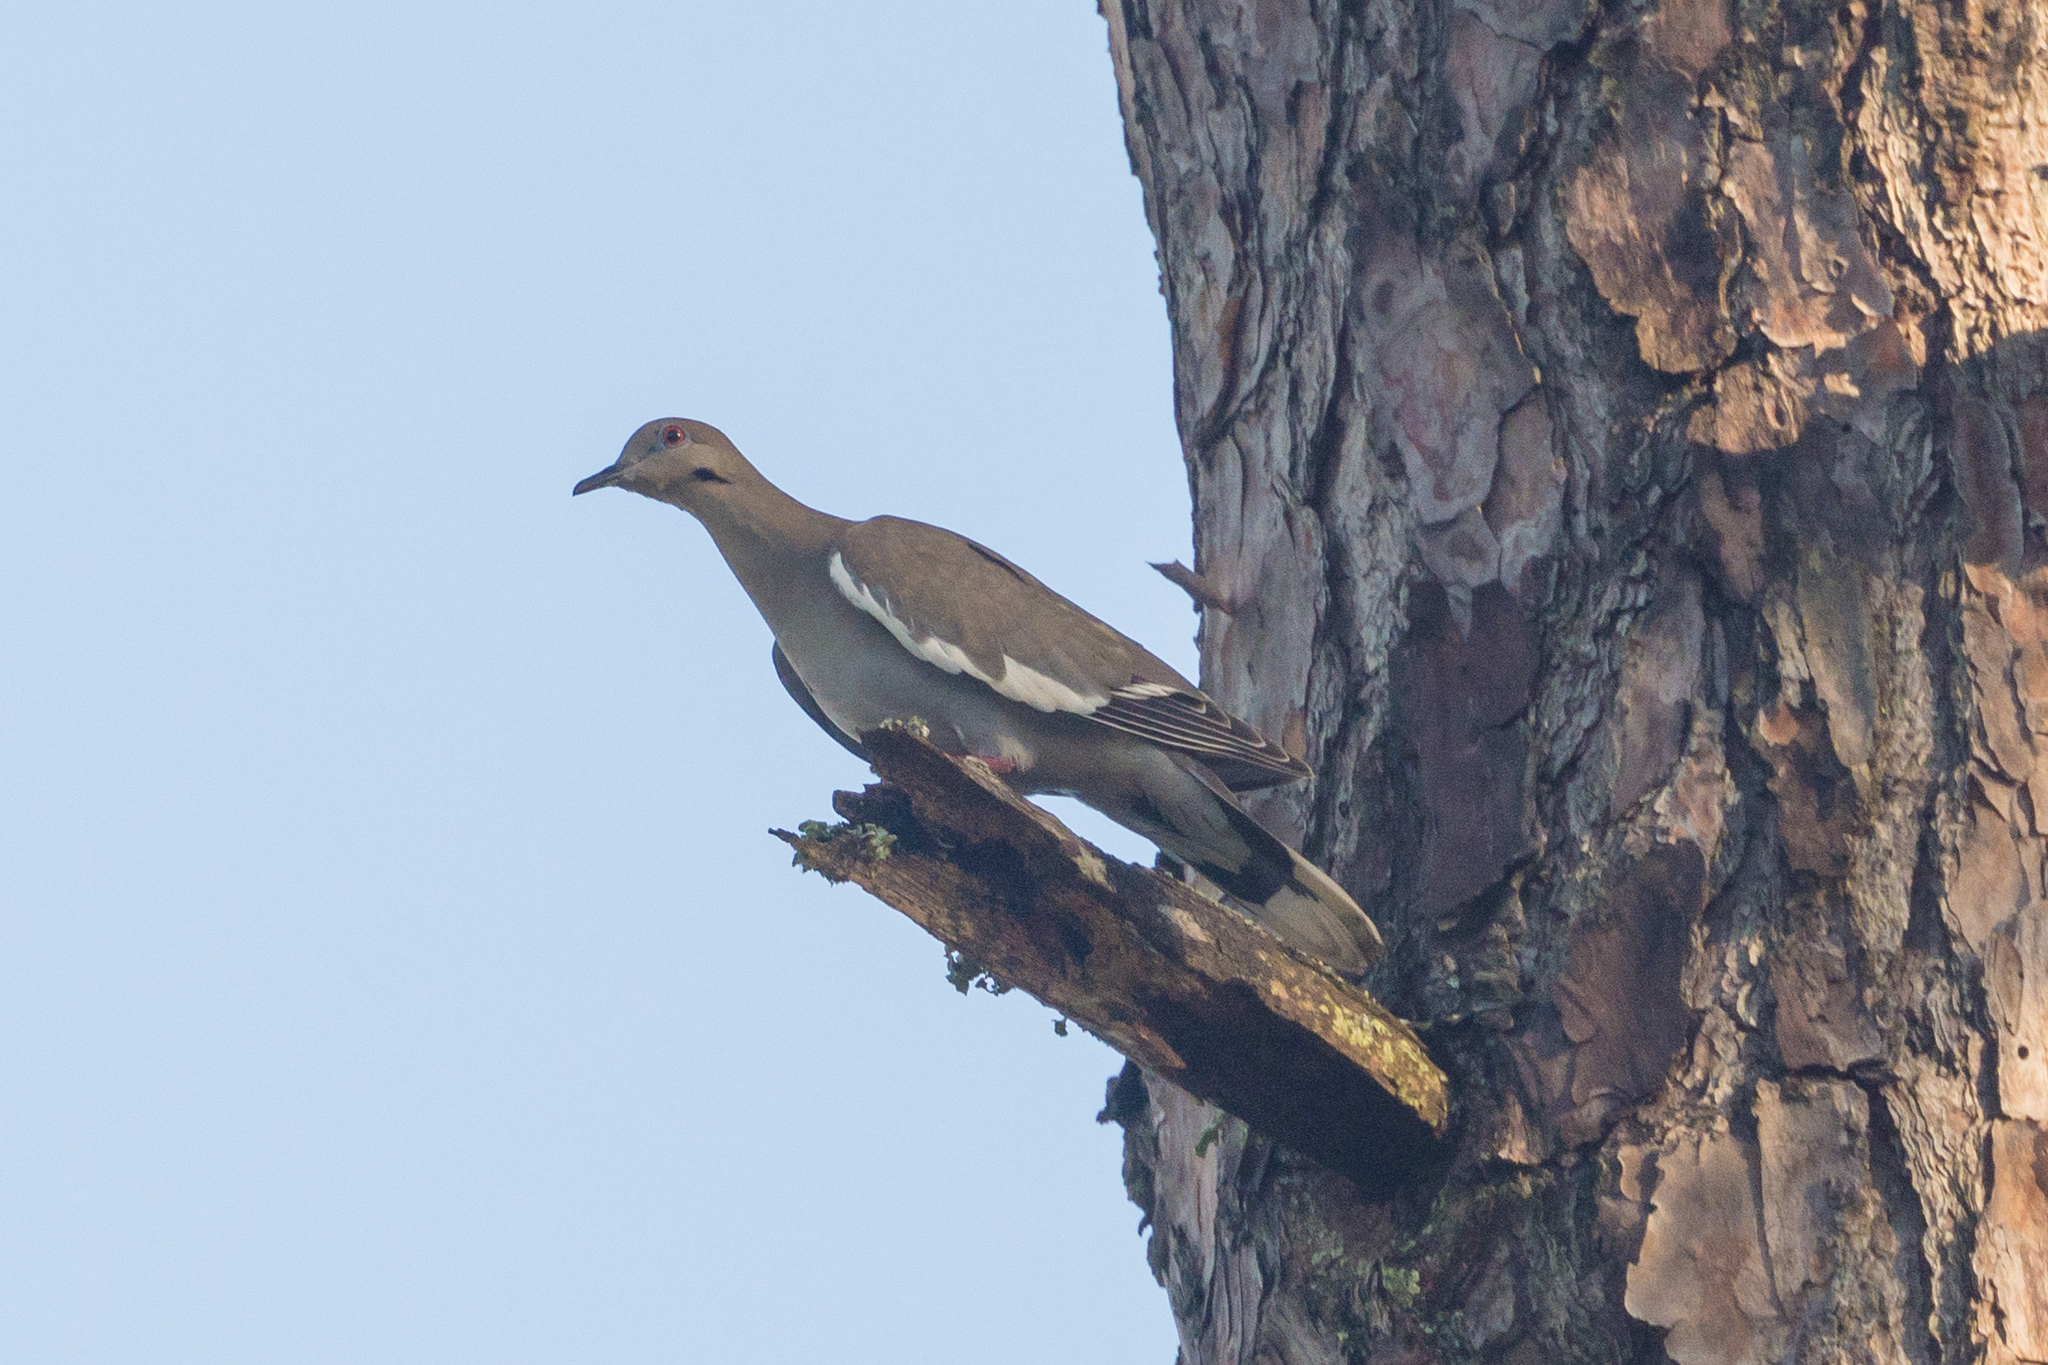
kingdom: Animalia
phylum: Chordata
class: Aves
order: Columbiformes
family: Columbidae
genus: Zenaida
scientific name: Zenaida asiatica
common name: White-winged dove
